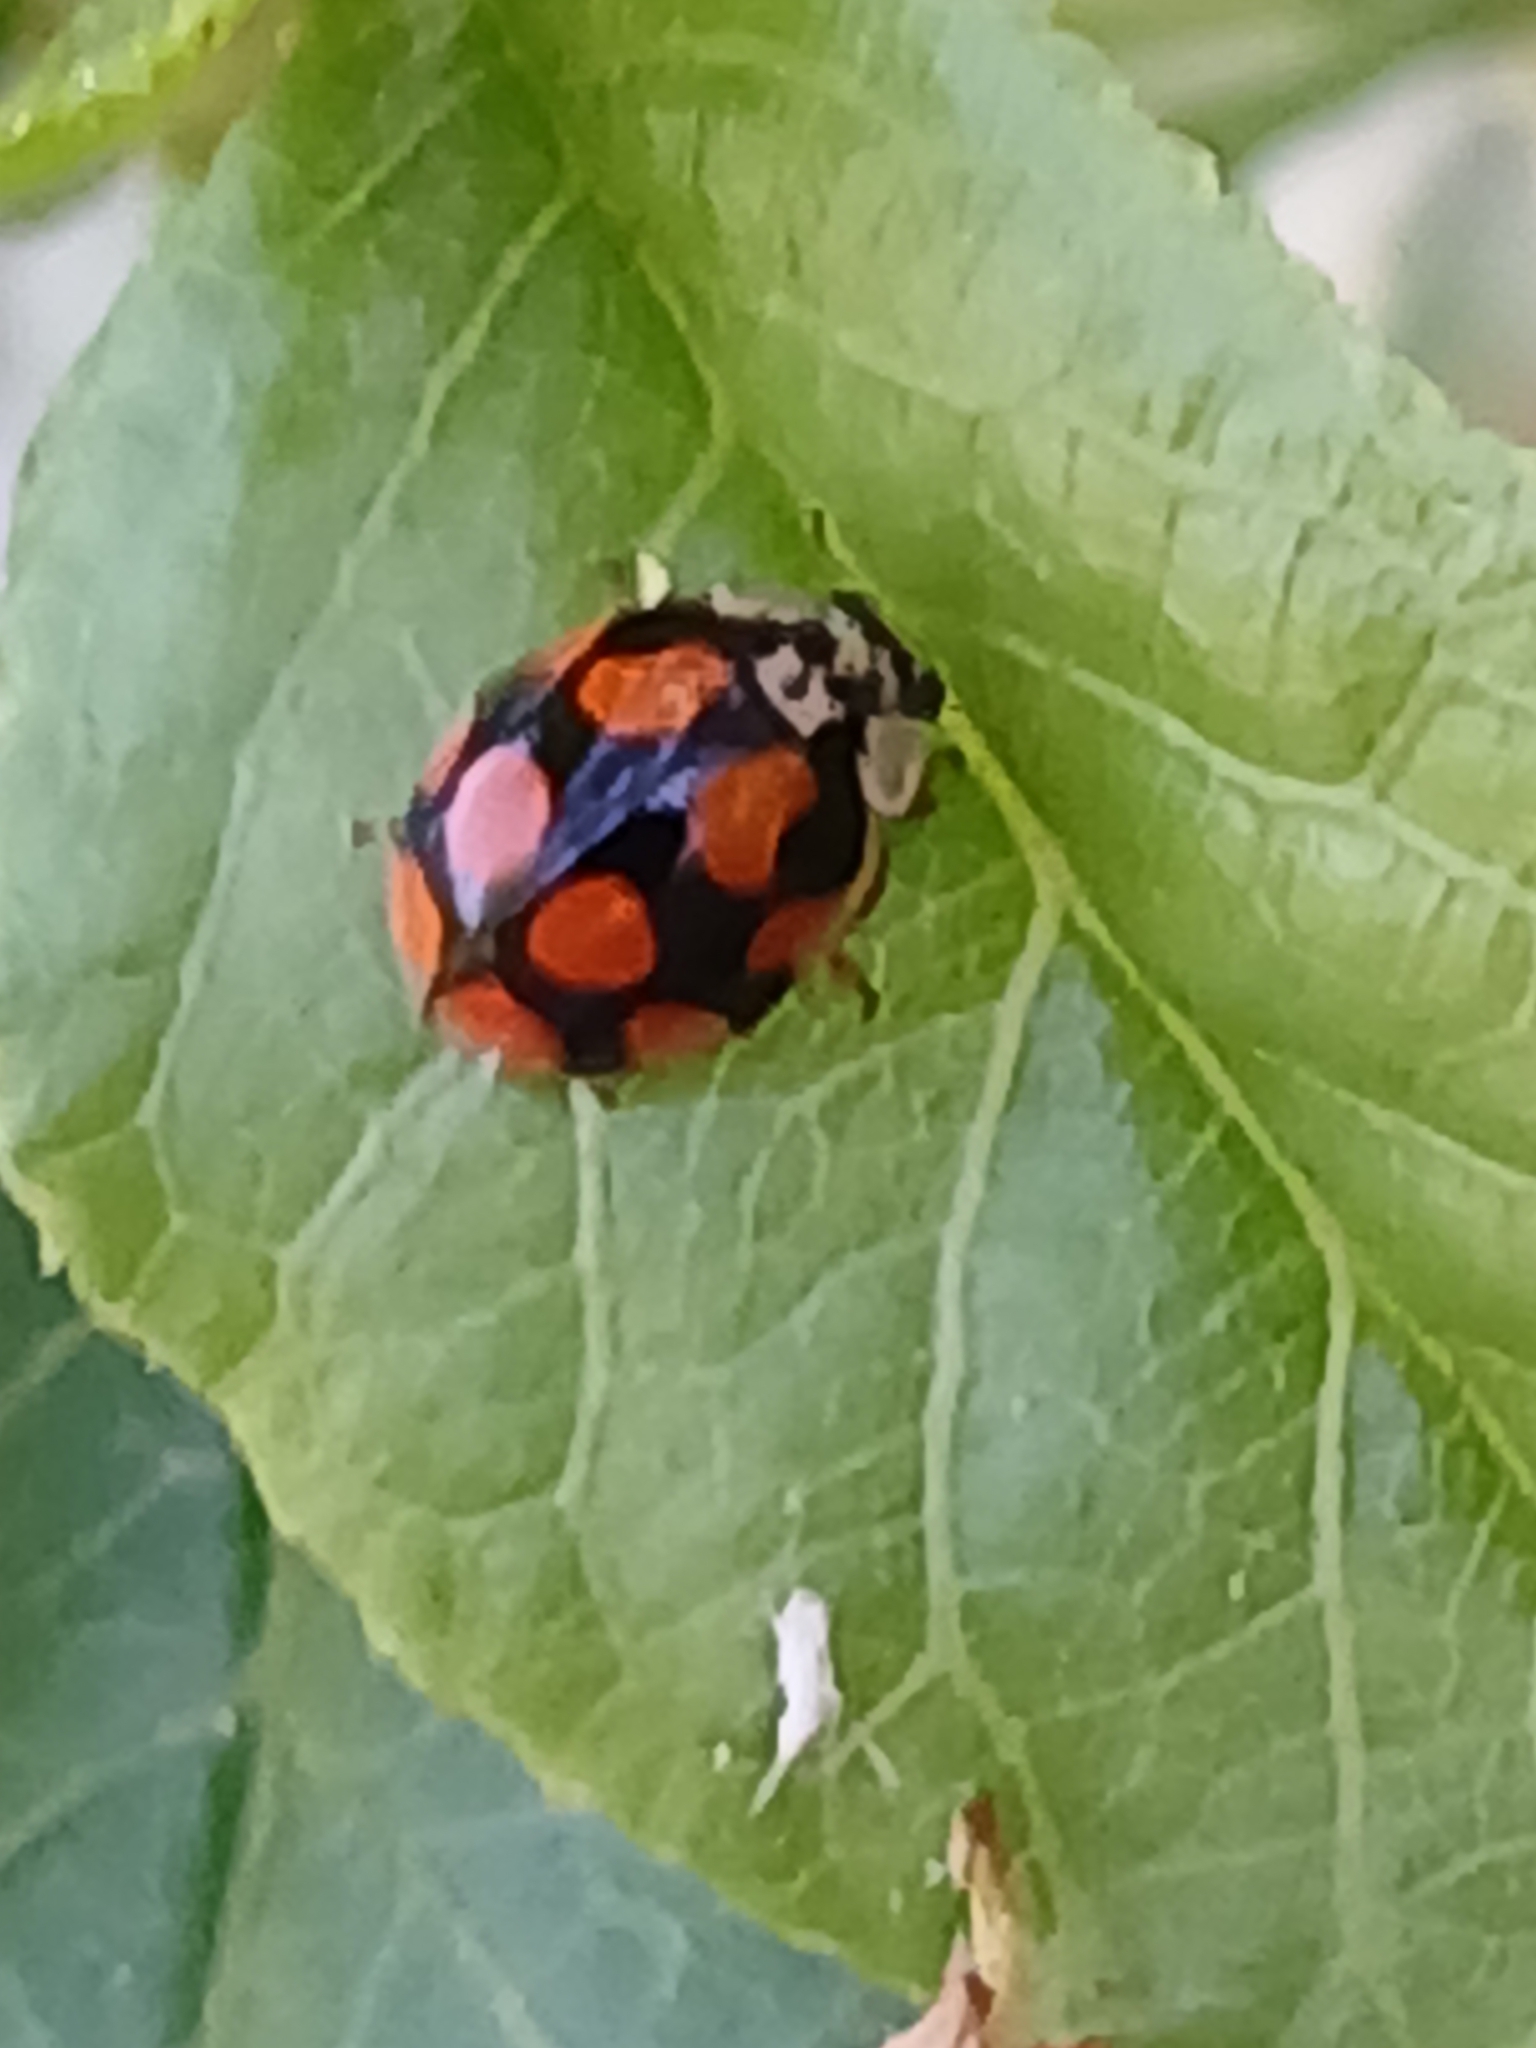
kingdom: Animalia
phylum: Arthropoda
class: Insecta
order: Coleoptera
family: Coccinellidae
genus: Adalia
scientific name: Adalia decempunctata
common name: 10-spot ladybird
